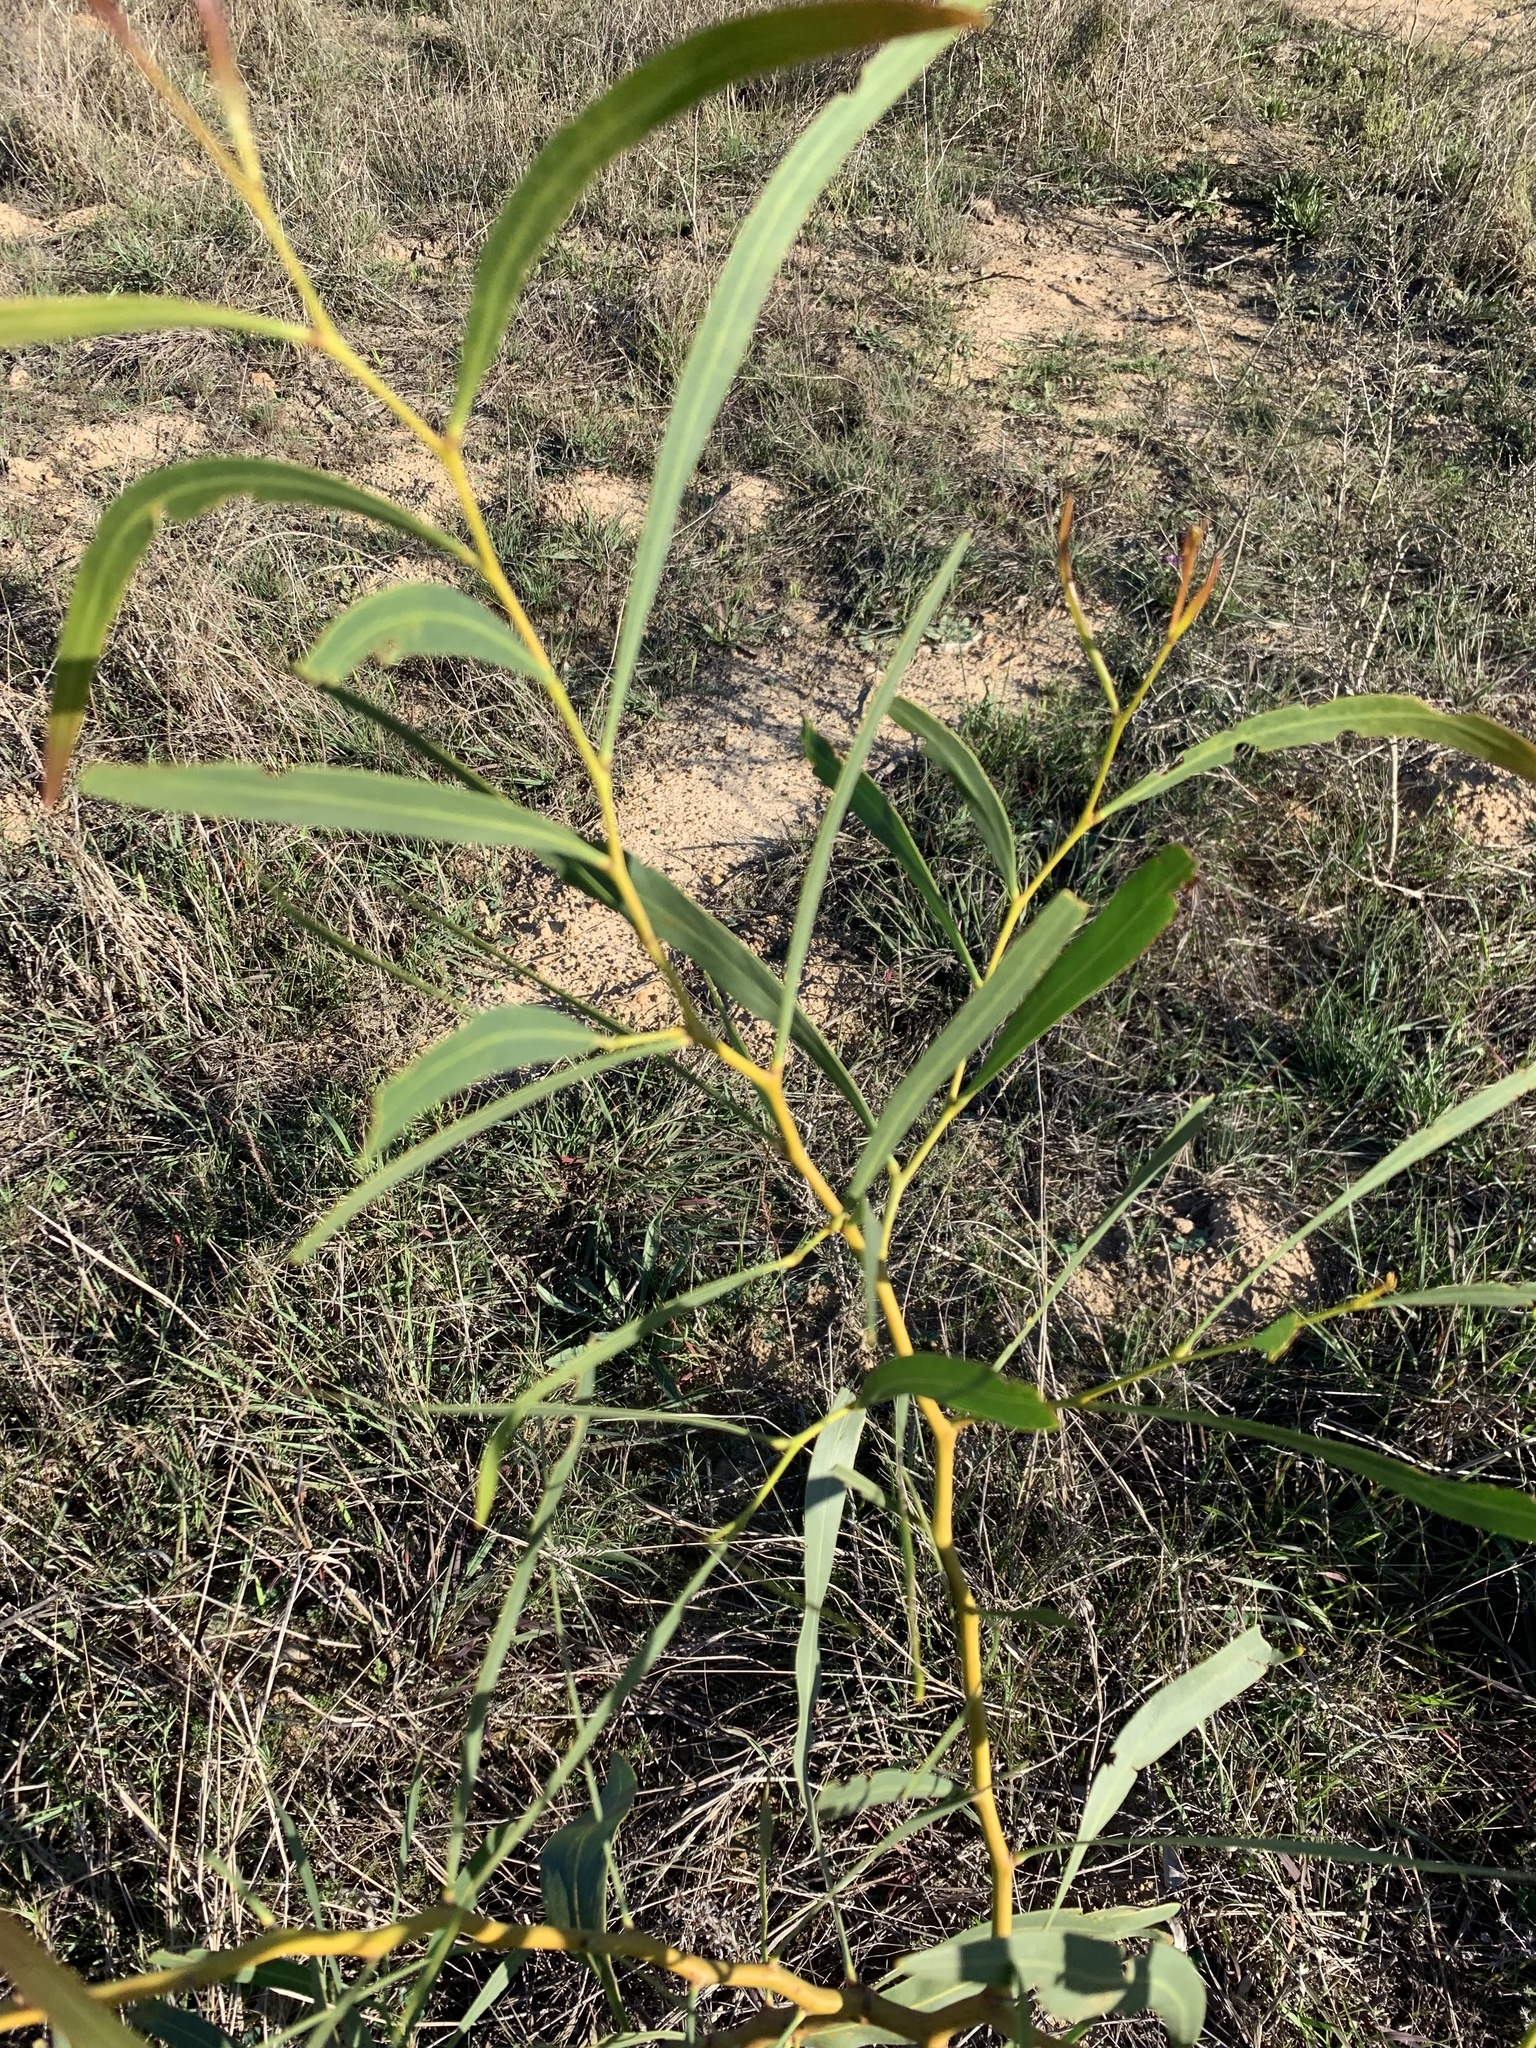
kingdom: Plantae
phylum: Tracheophyta
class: Magnoliopsida
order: Fabales
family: Fabaceae
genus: Acacia
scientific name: Acacia saligna
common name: Orange wattle
